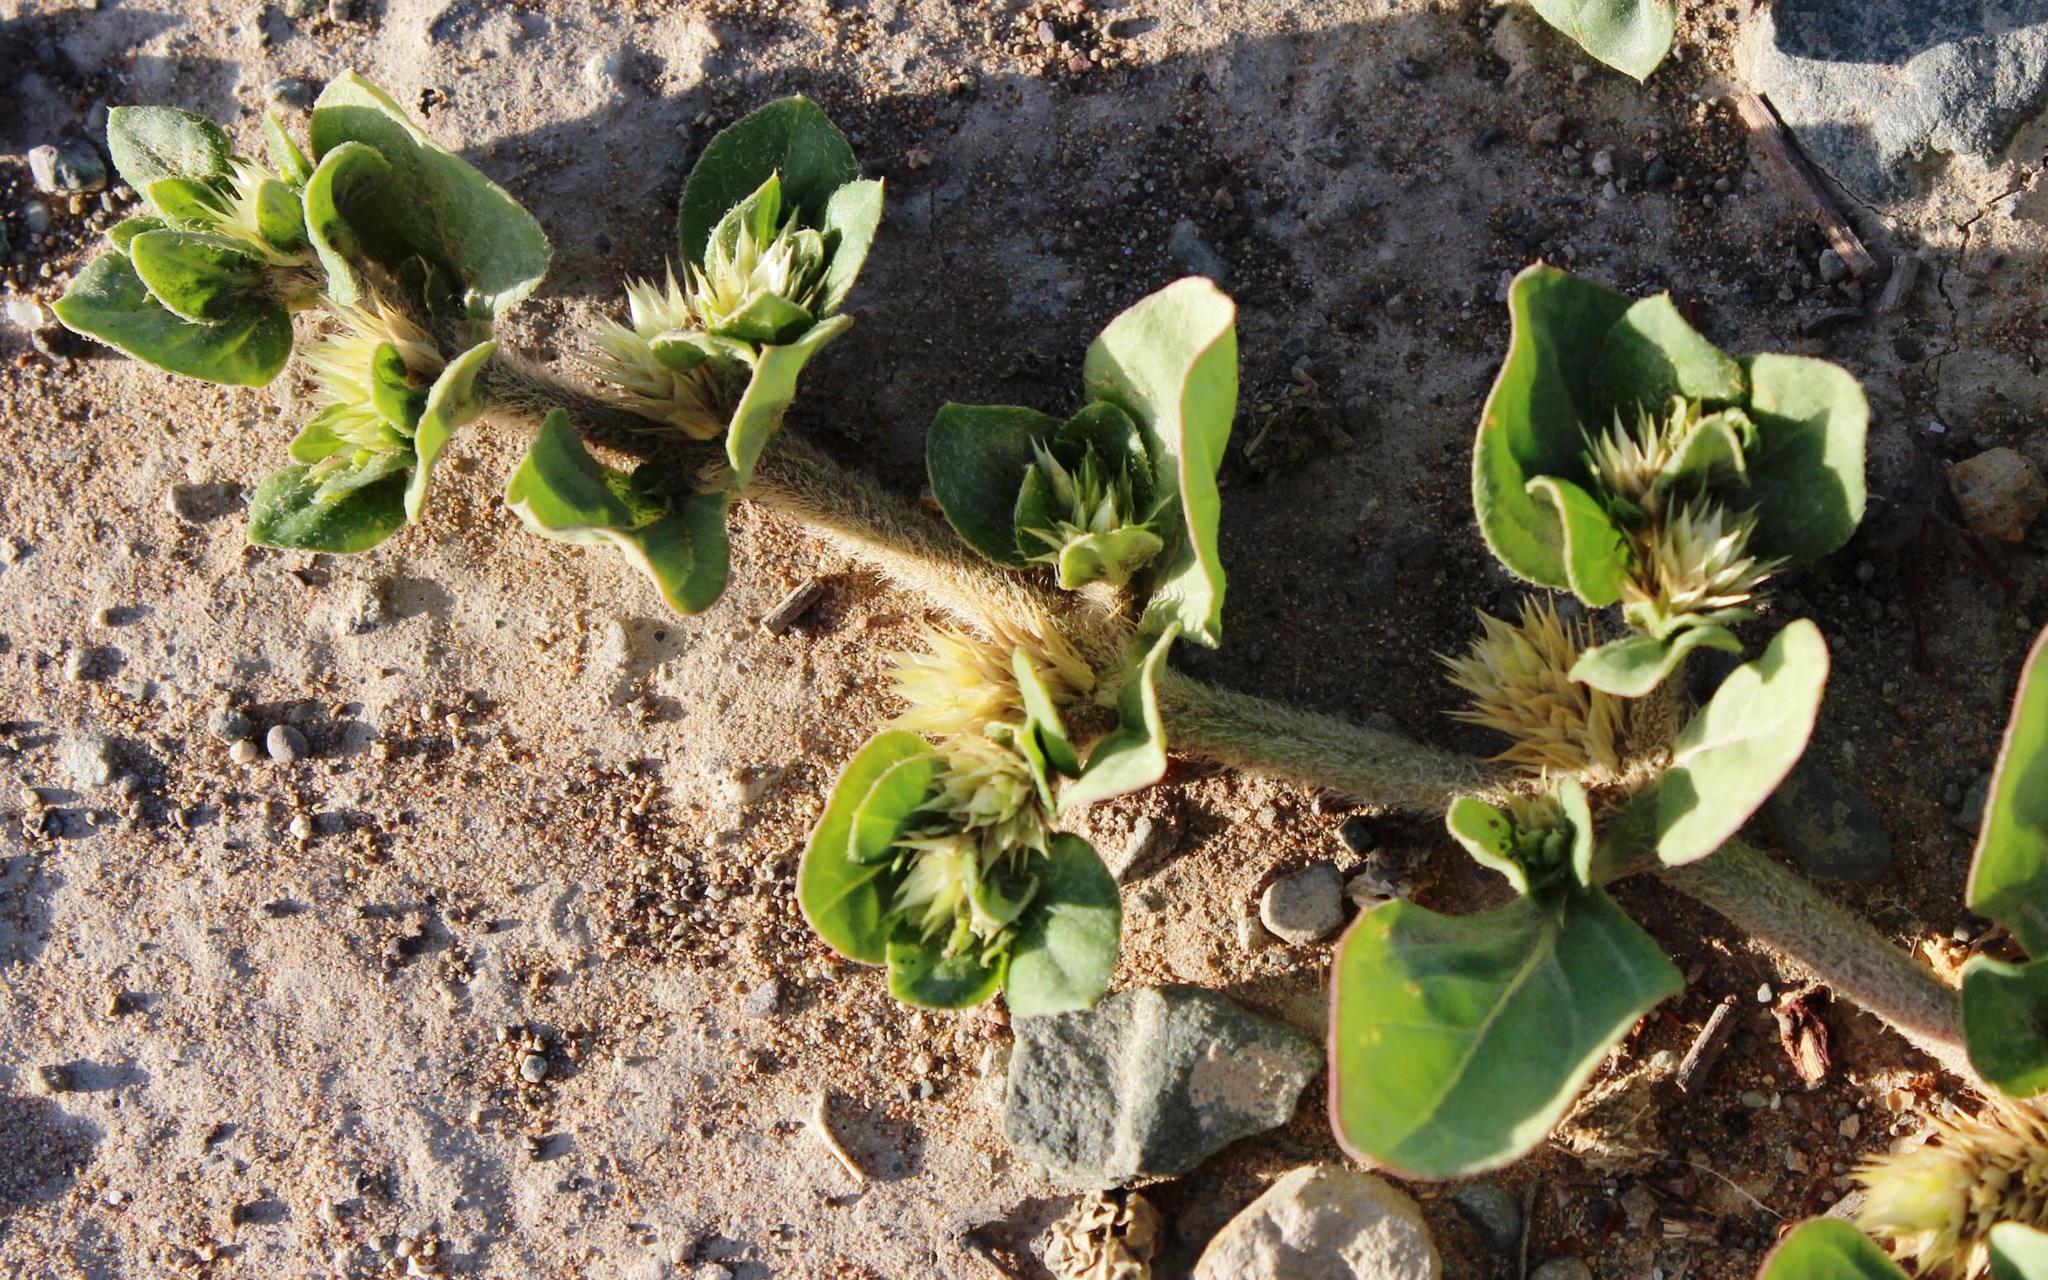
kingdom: Plantae
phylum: Tracheophyta
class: Magnoliopsida
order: Caryophyllales
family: Amaranthaceae
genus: Alternanthera
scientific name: Alternanthera pungens
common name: Khakiweed
